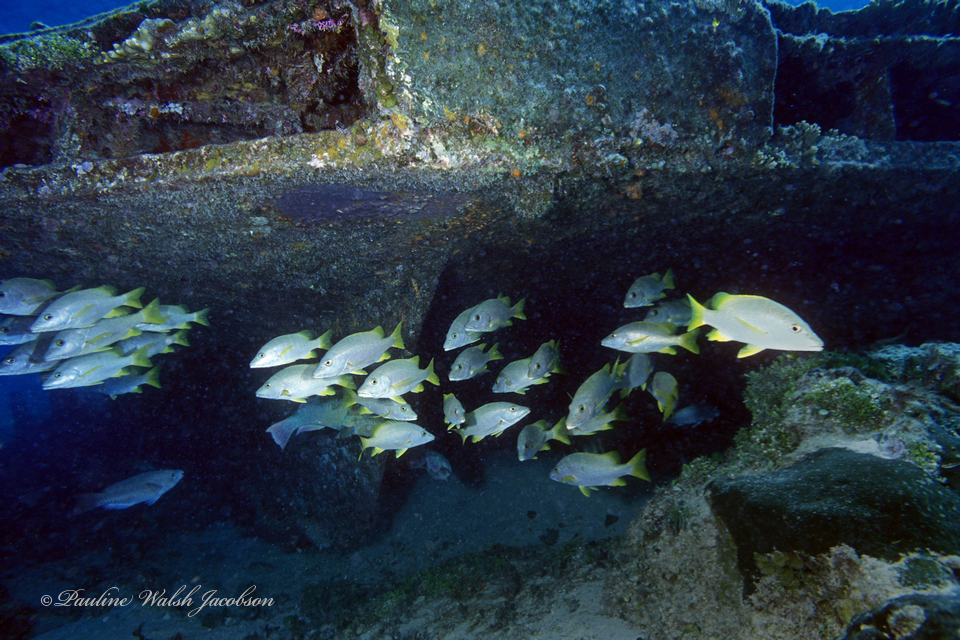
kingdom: Animalia
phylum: Chordata
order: Perciformes
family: Lutjanidae
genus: Lutjanus
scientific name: Lutjanus apodus
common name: Schoolmaster
